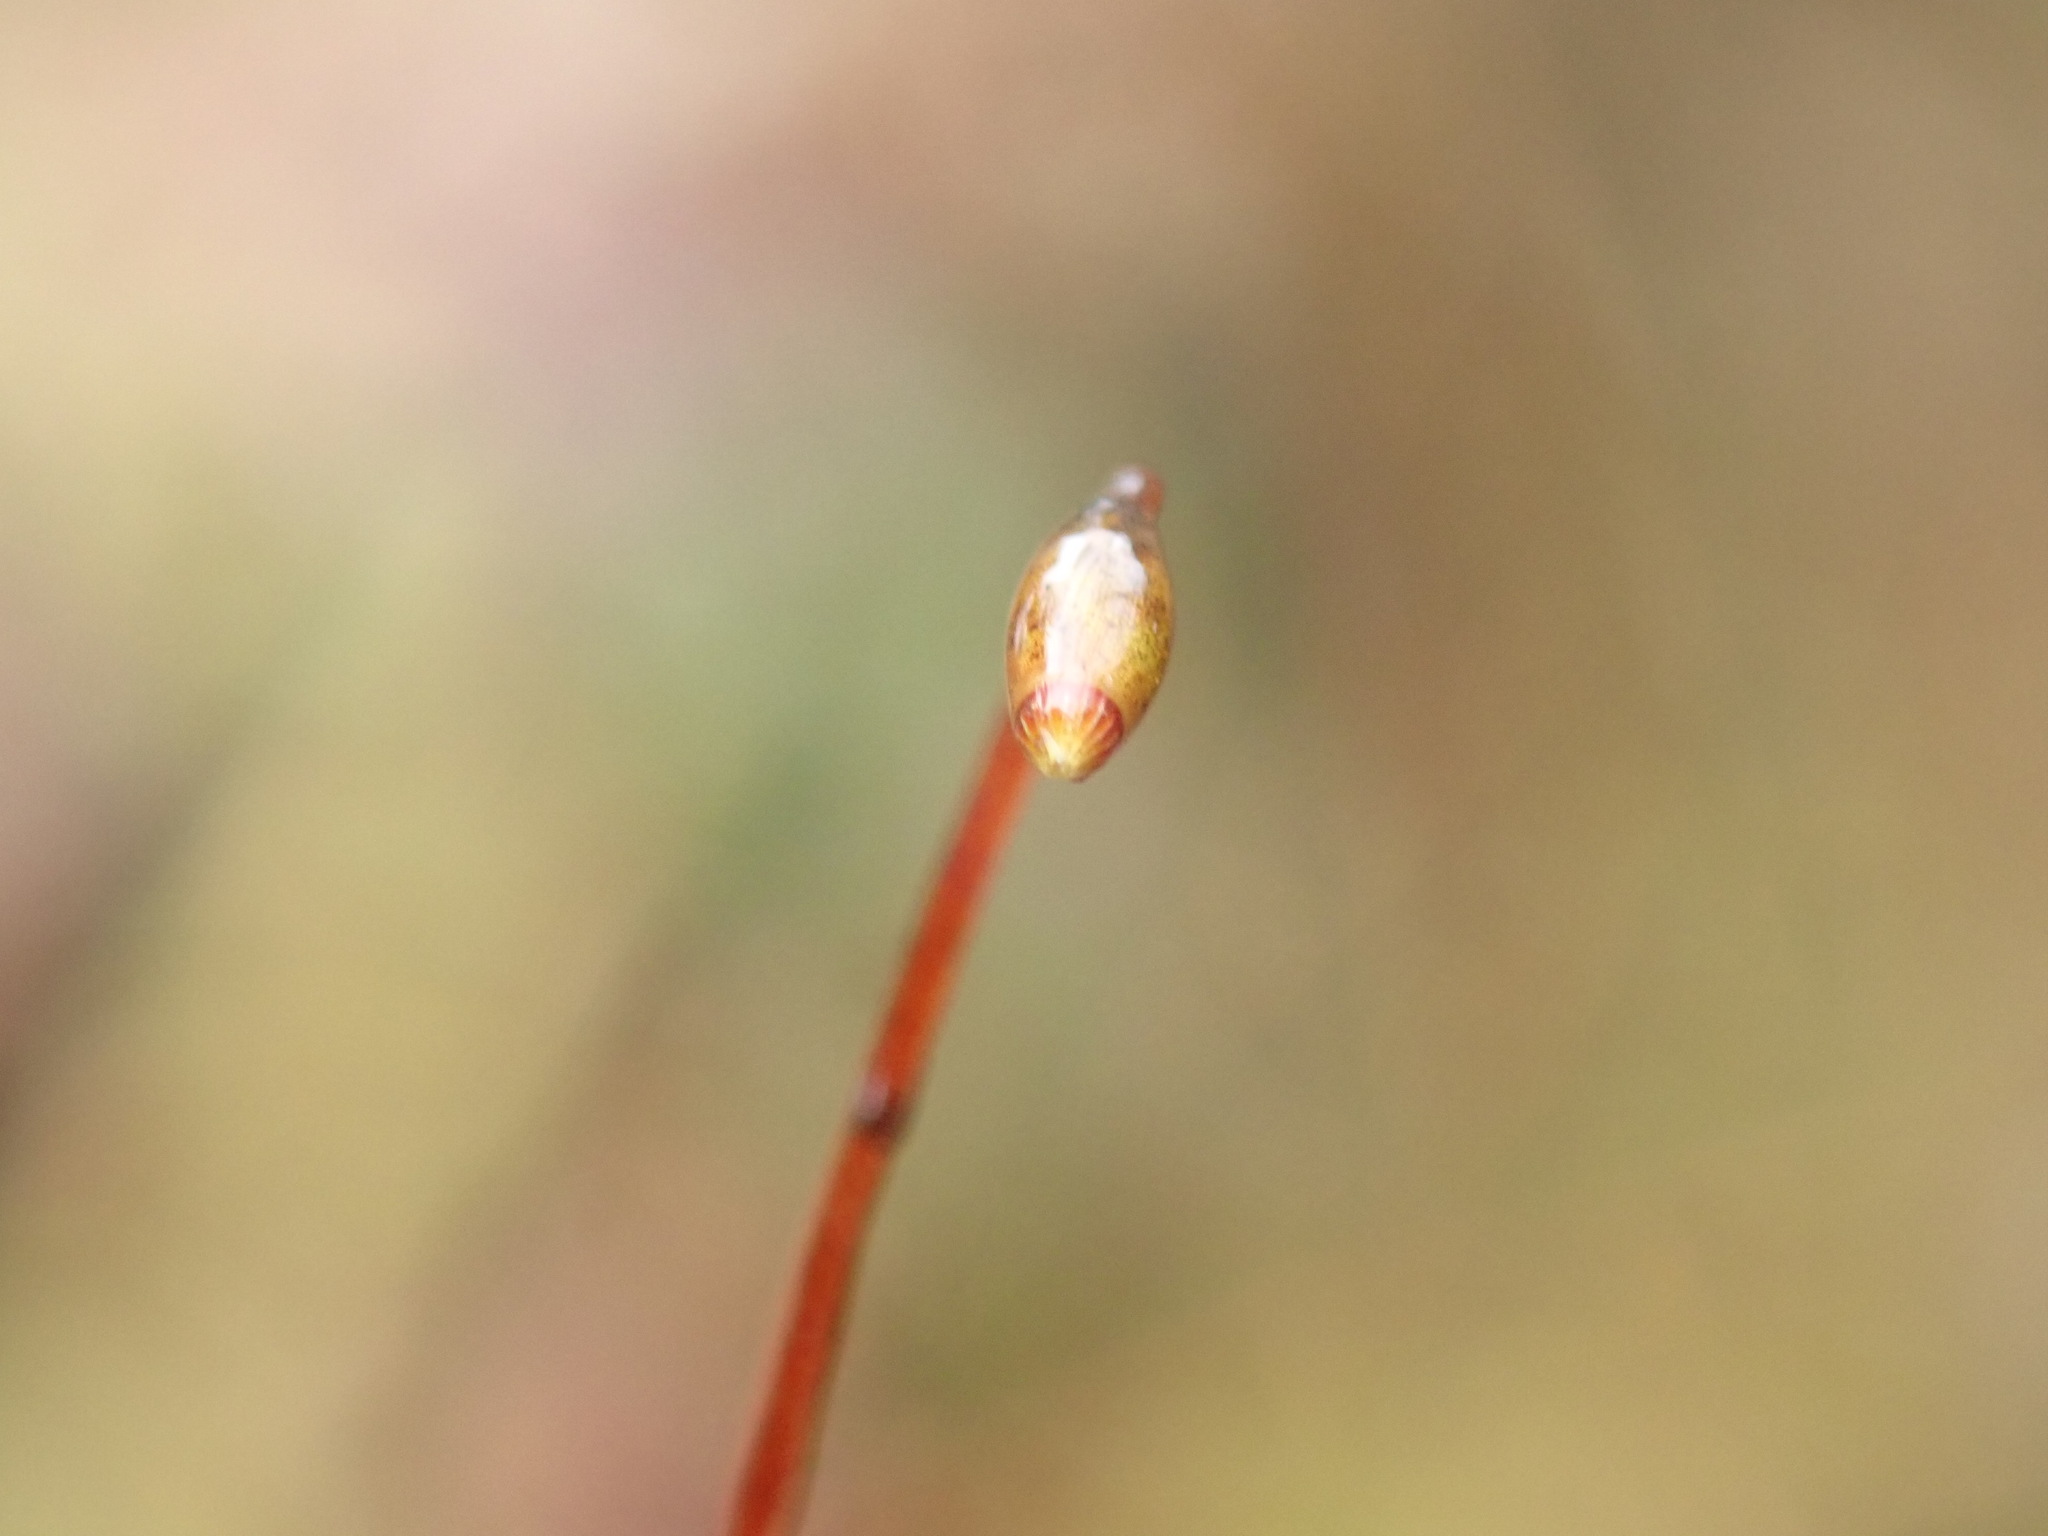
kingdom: Plantae
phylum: Bryophyta
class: Bryopsida
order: Hookeriales
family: Hookeriaceae
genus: Hookeria
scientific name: Hookeria lucens
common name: Shining hookeria
